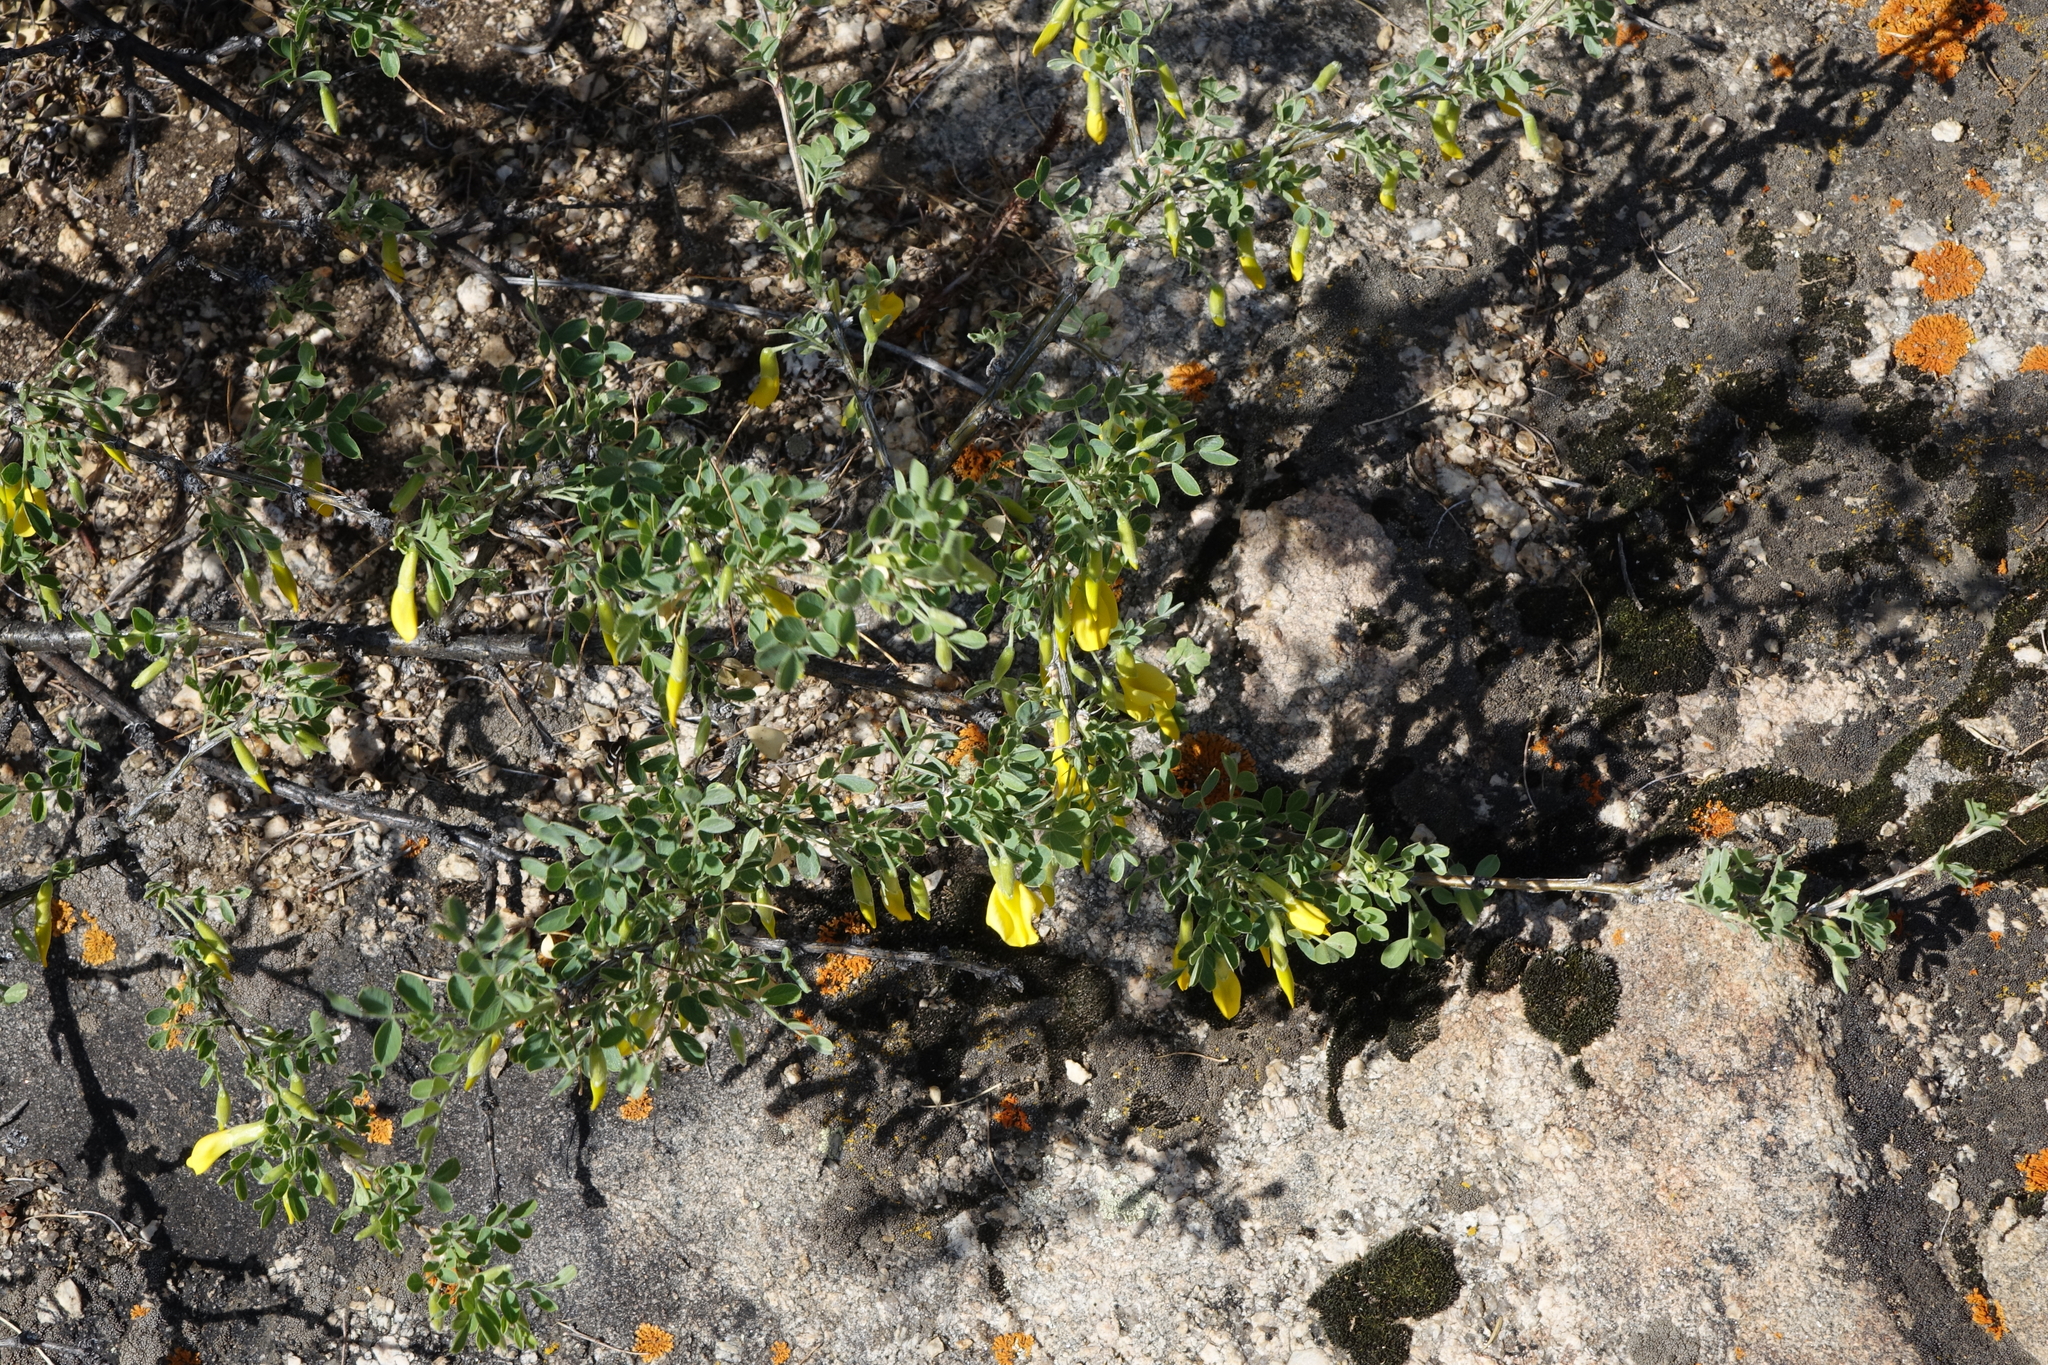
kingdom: Plantae
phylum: Tracheophyta
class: Magnoliopsida
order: Fabales
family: Fabaceae
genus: Caragana
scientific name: Caragana bungei
